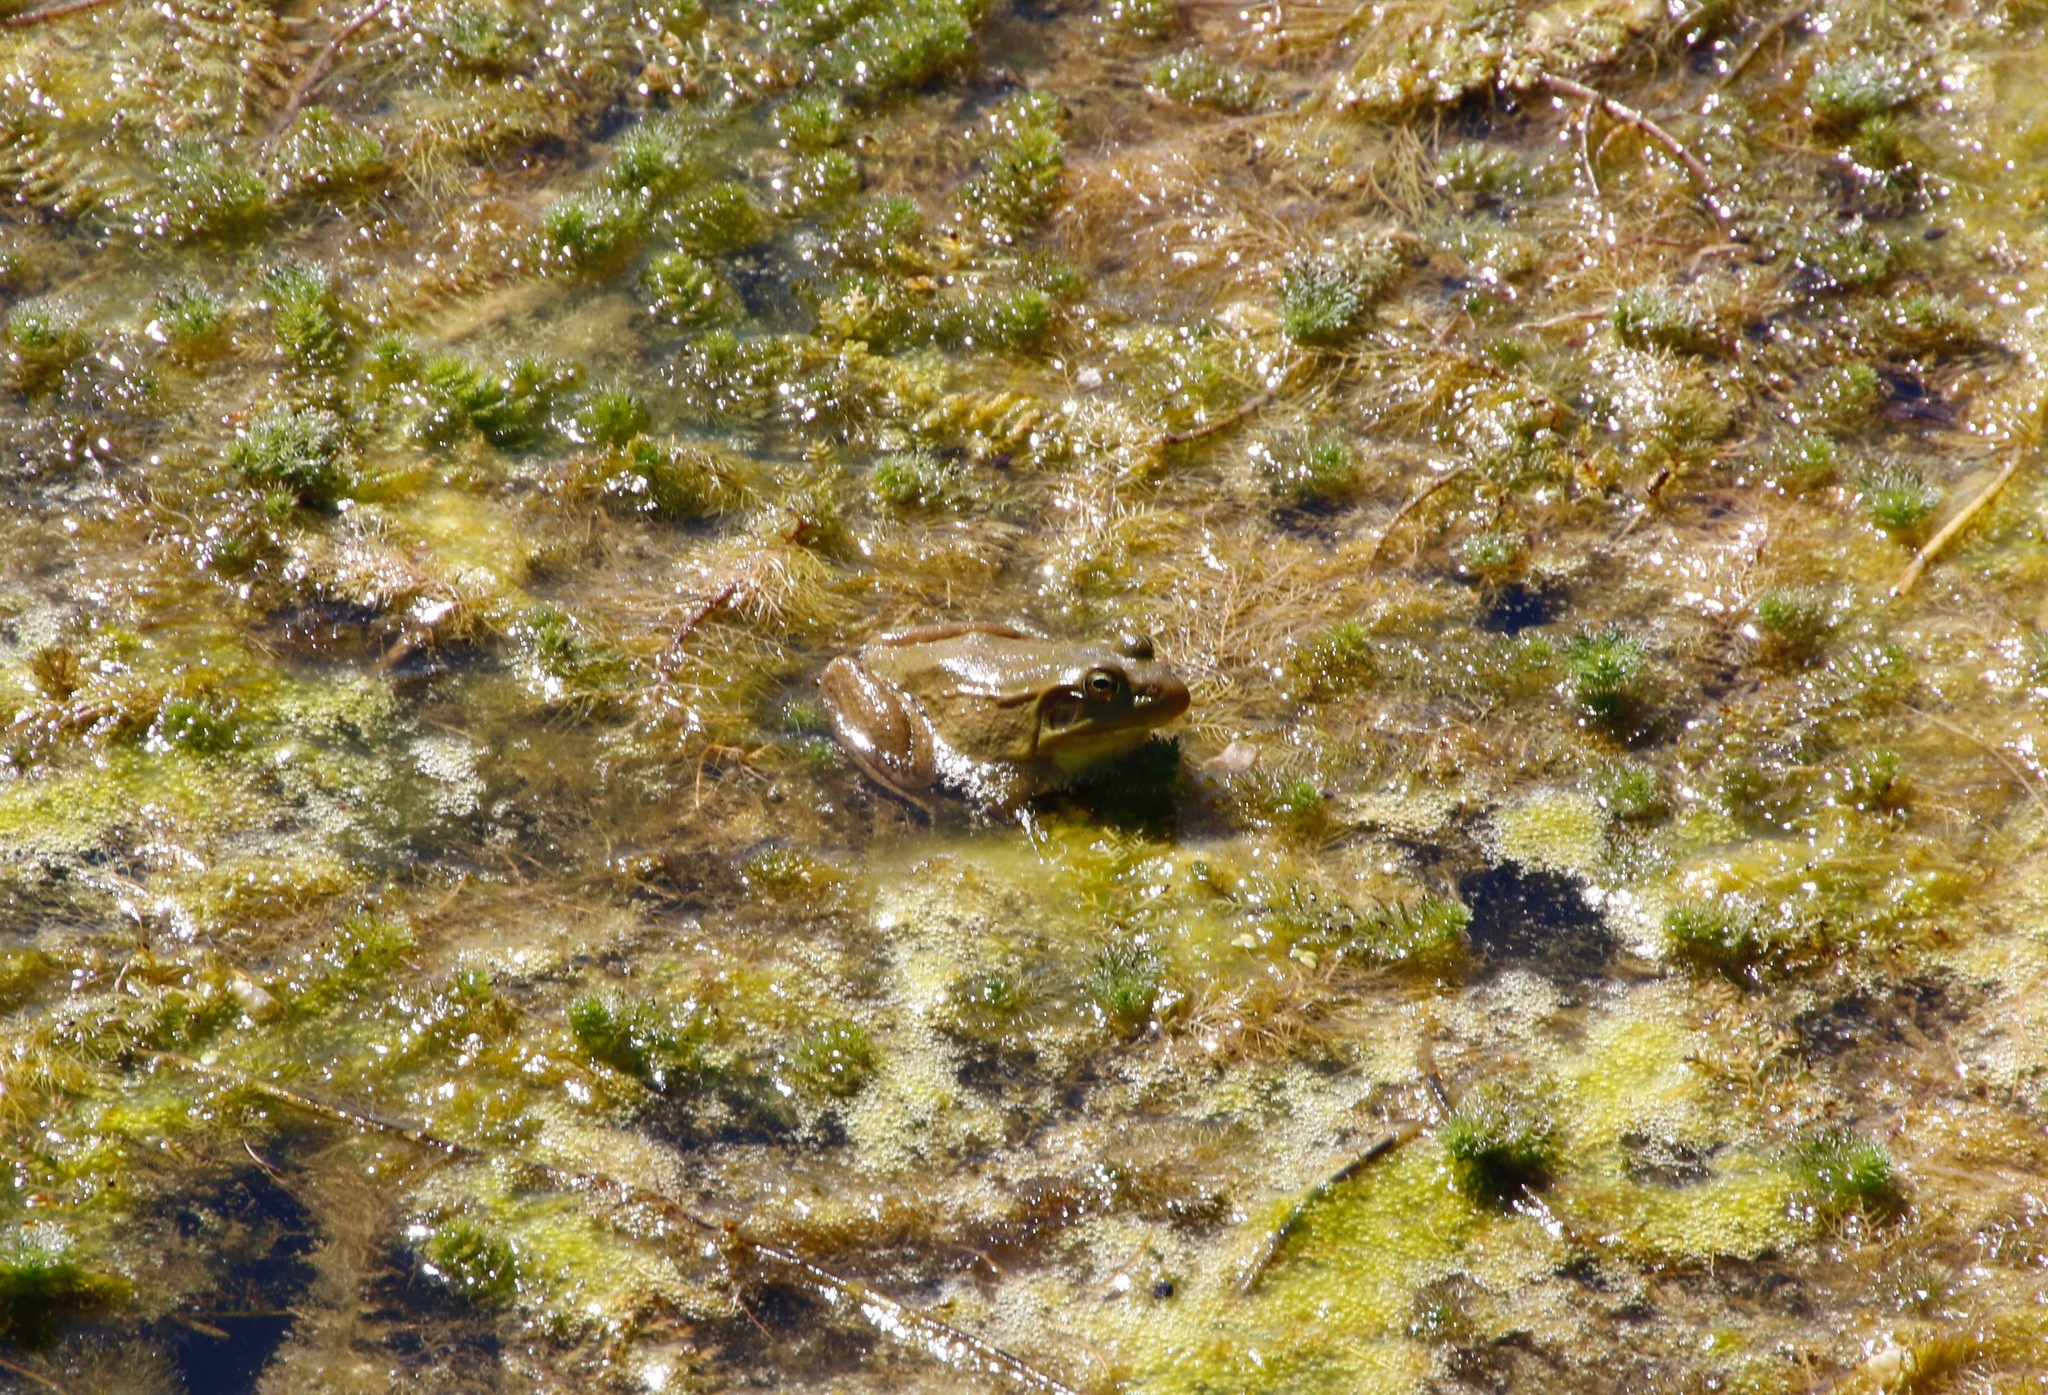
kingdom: Animalia
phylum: Chordata
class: Amphibia
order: Anura
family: Ranidae
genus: Lithobates
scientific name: Lithobates clamitans
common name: Green frog
